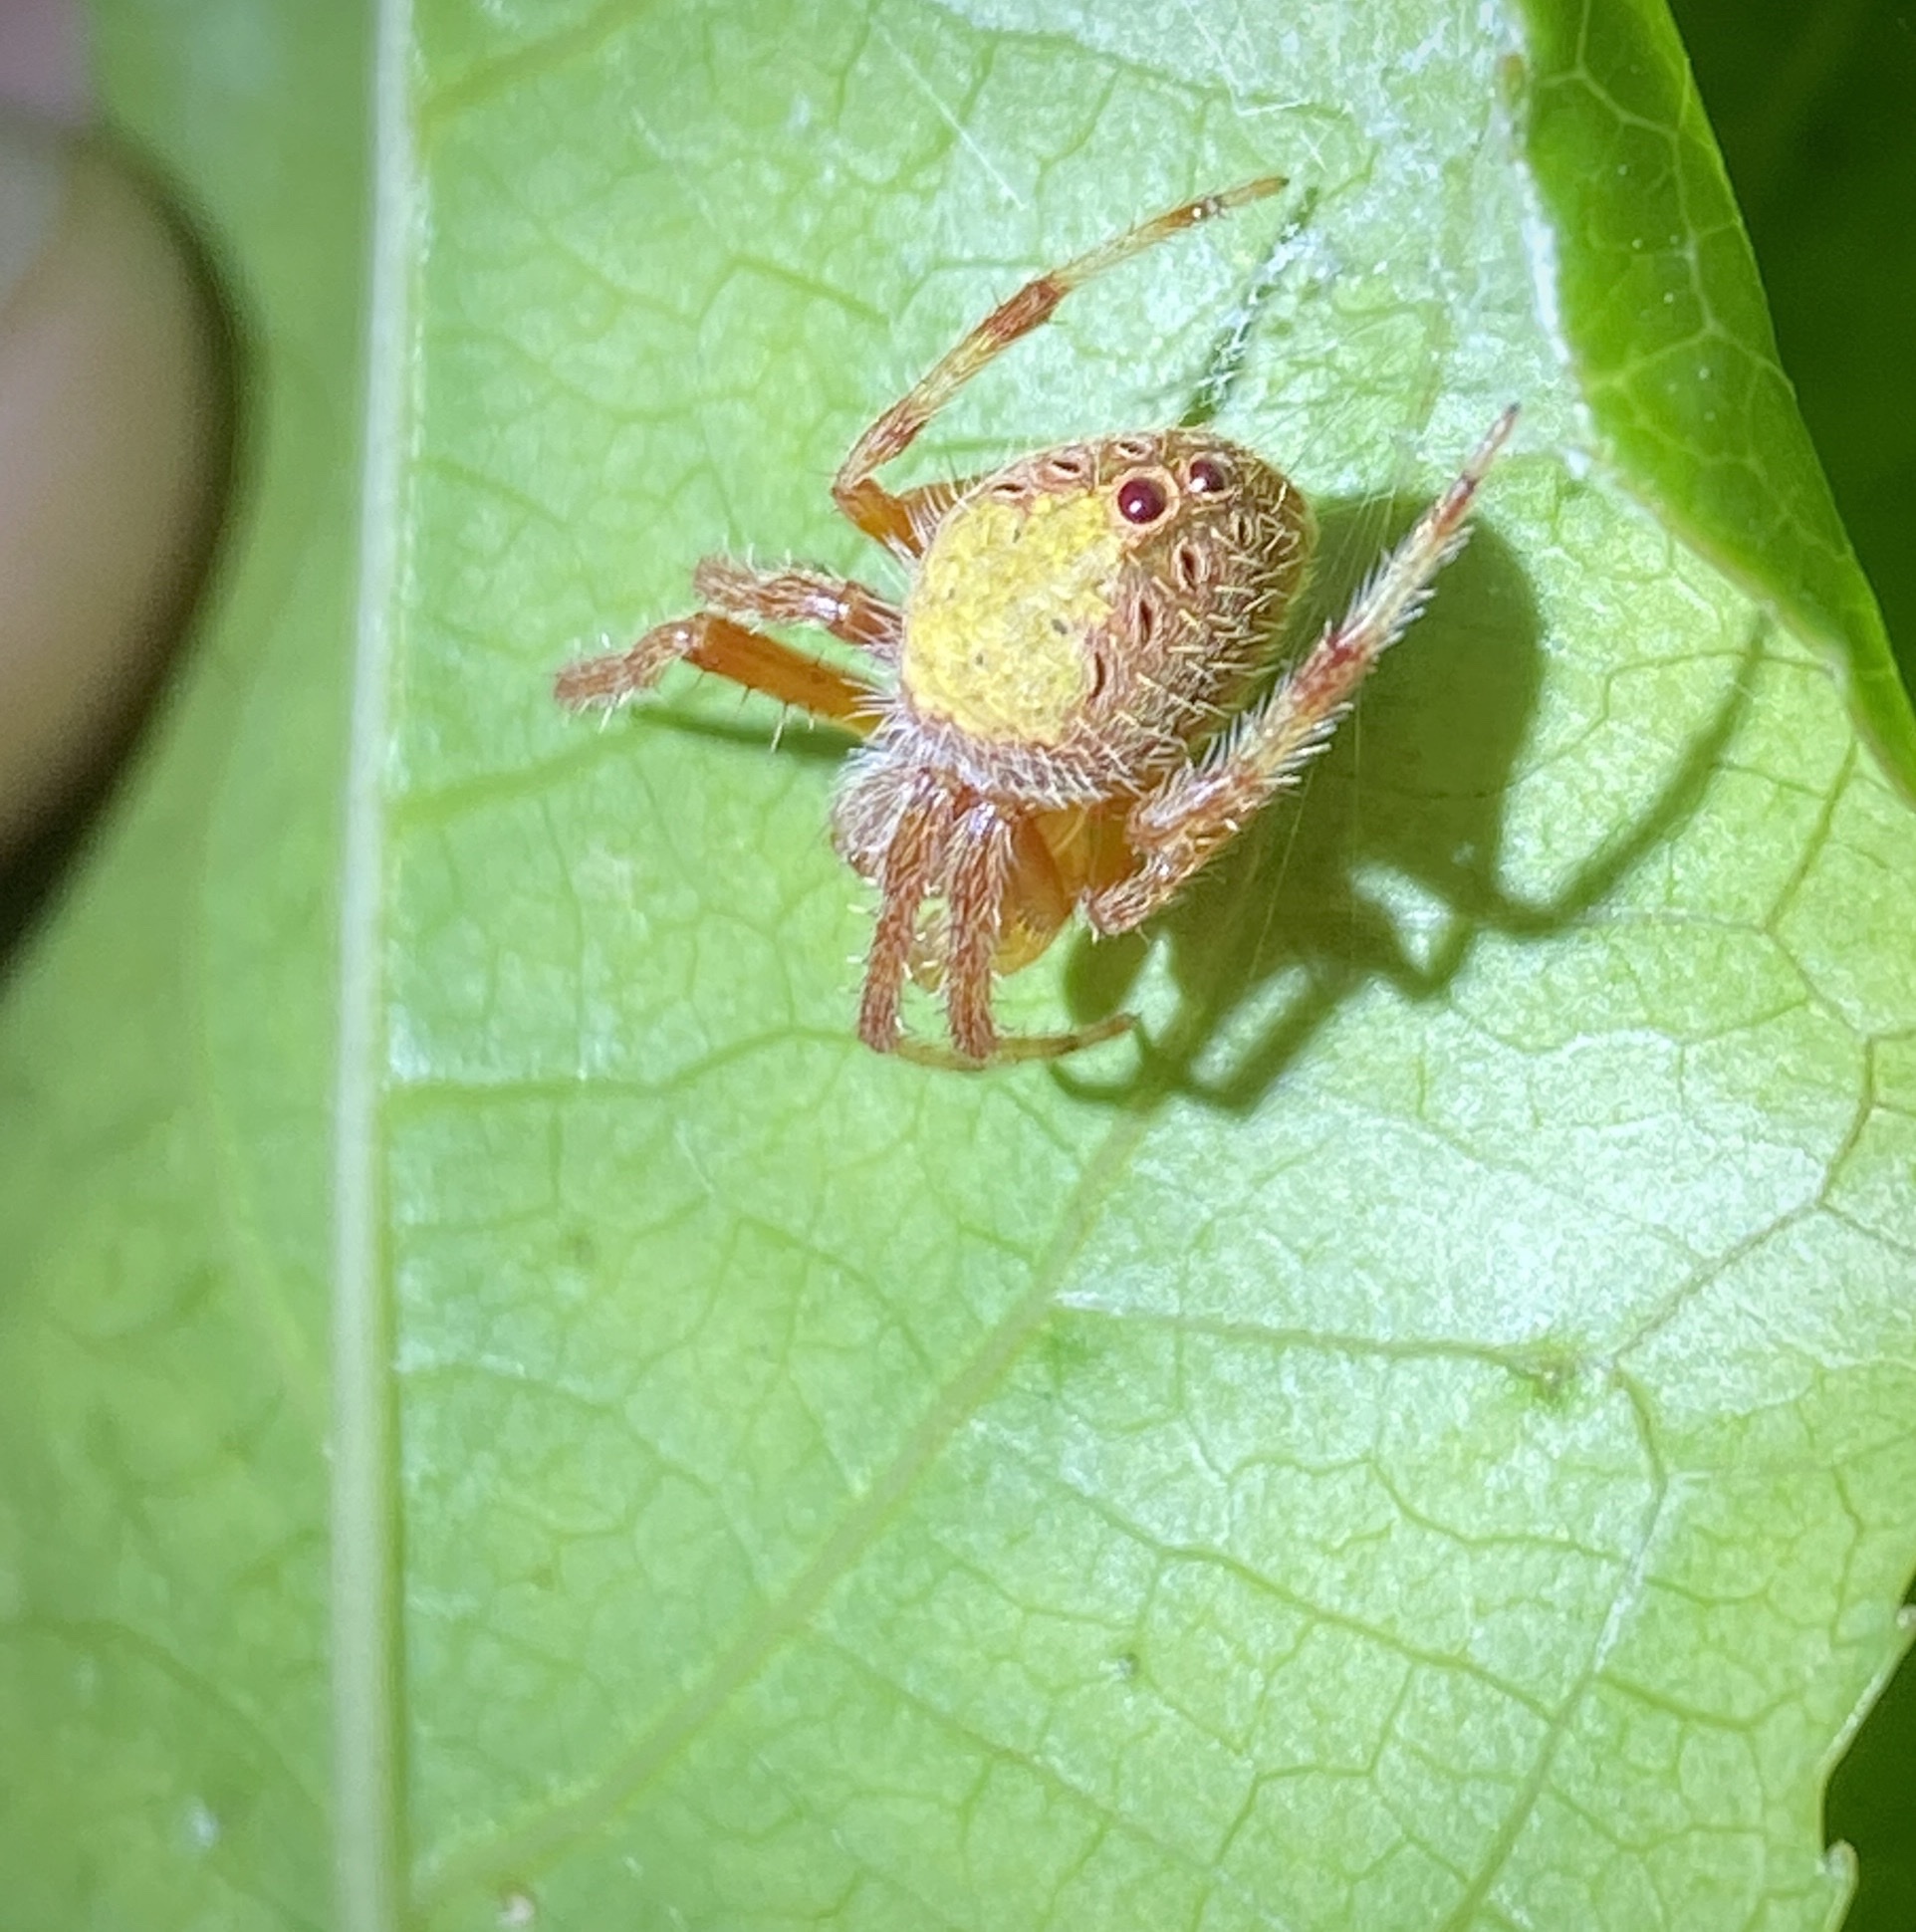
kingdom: Animalia
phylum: Arthropoda
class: Arachnida
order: Araneae
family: Araneidae
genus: Eriophora
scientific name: Eriophora ravilla
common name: Orb weavers
